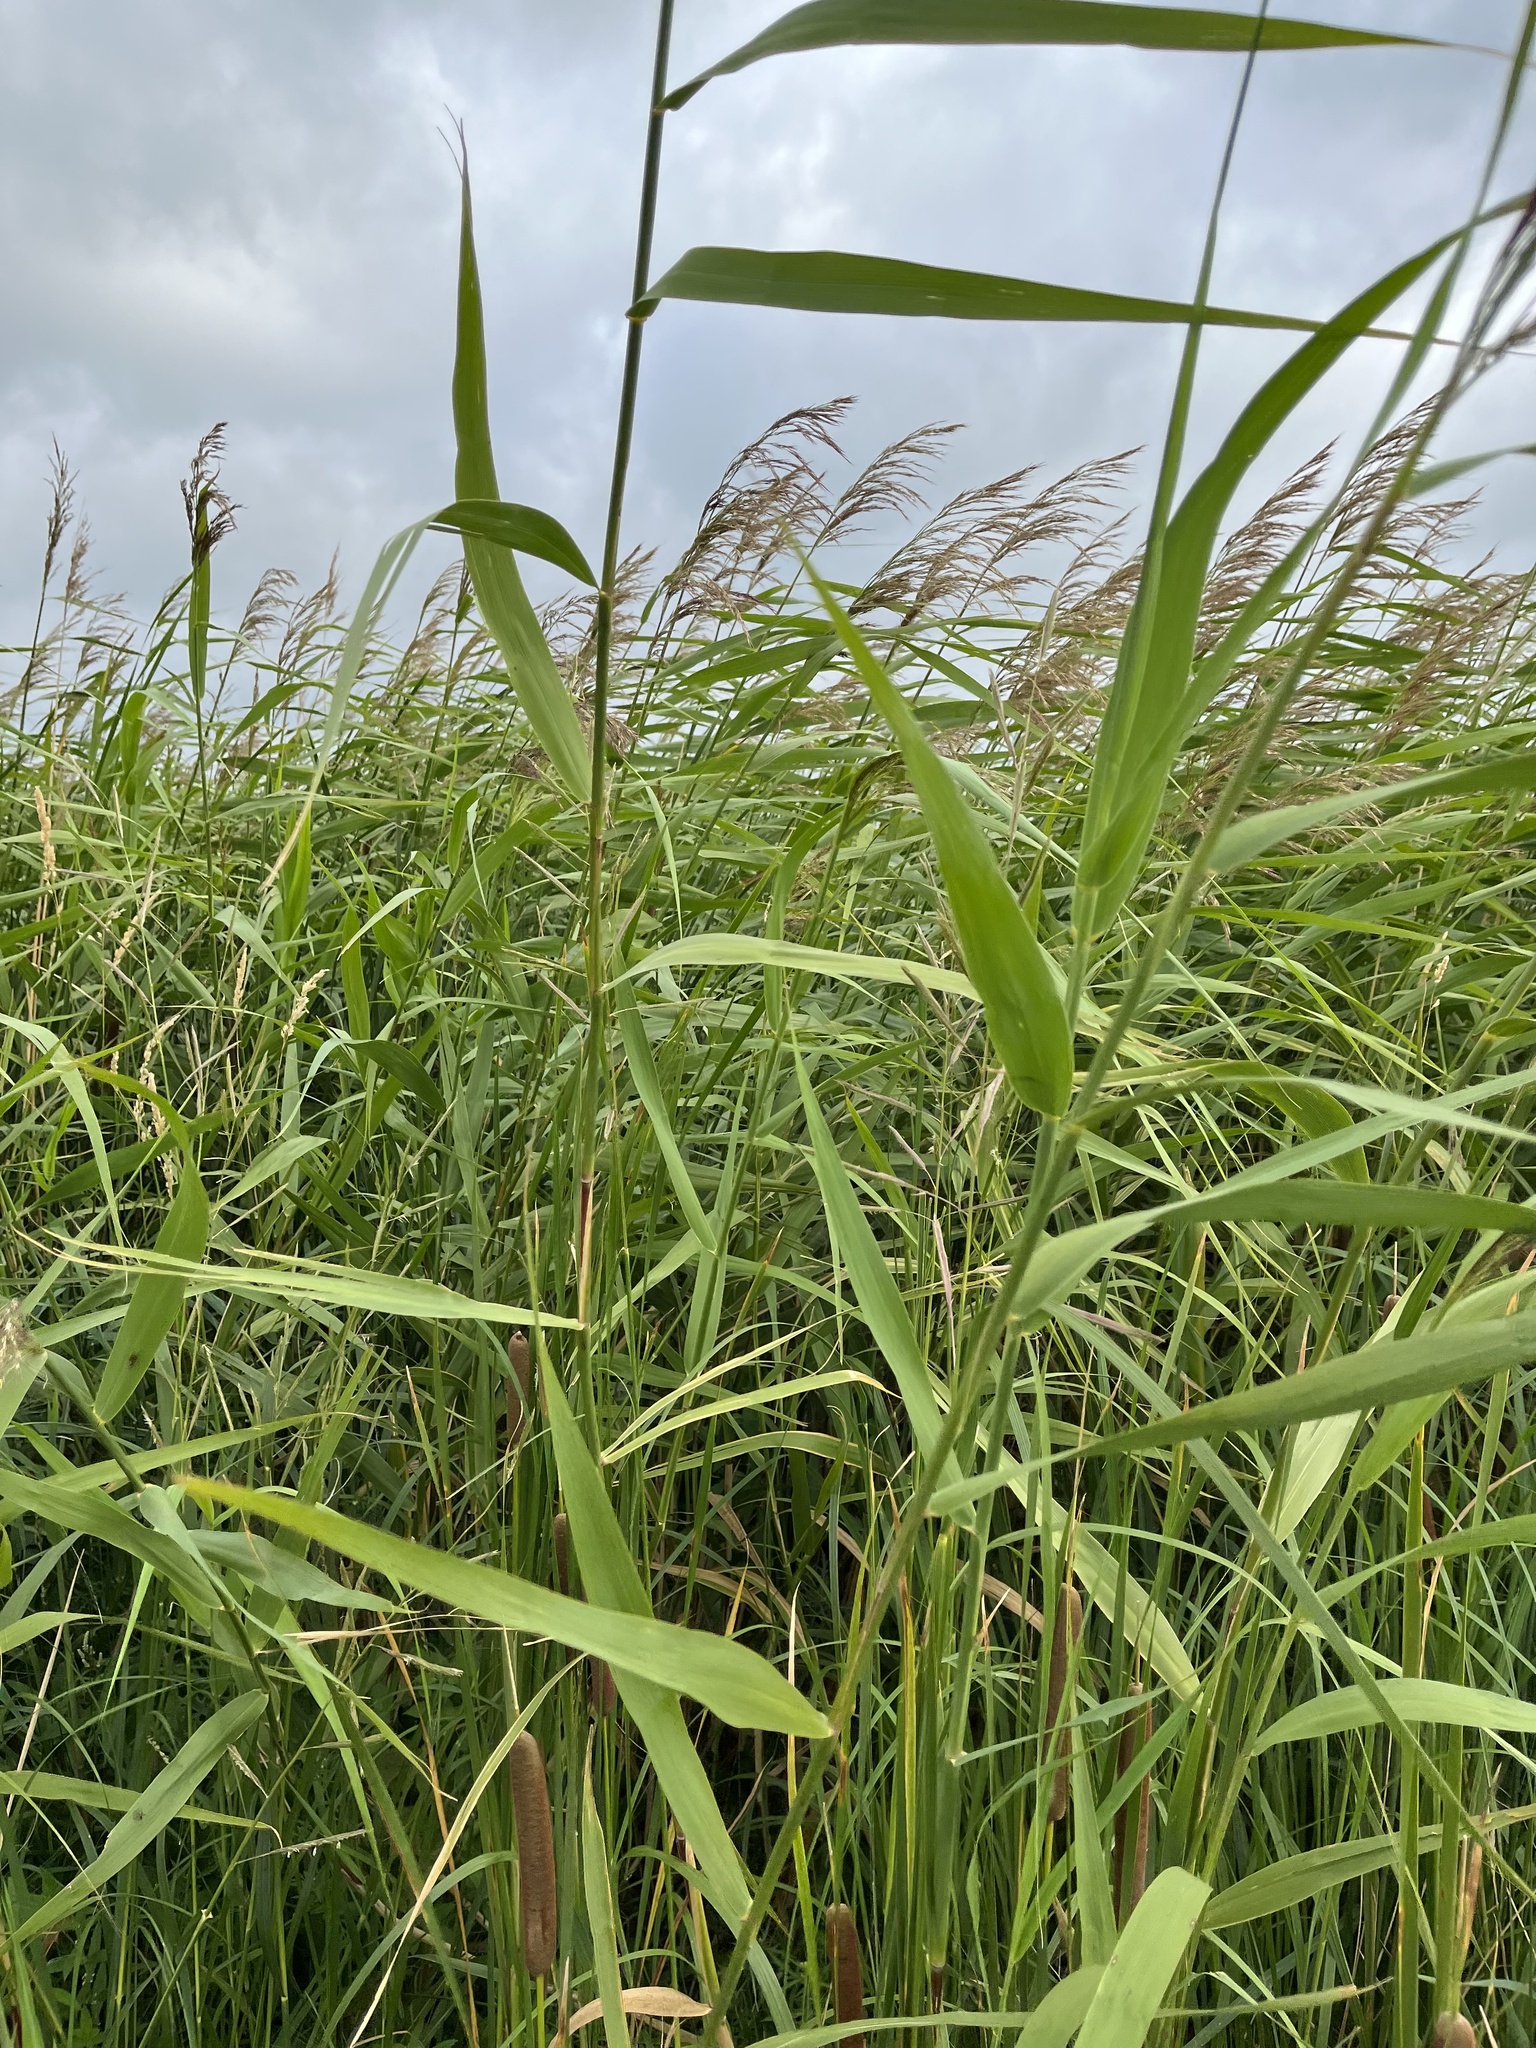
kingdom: Plantae
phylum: Tracheophyta
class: Liliopsida
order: Poales
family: Poaceae
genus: Phragmites
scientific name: Phragmites australis
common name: Common reed
